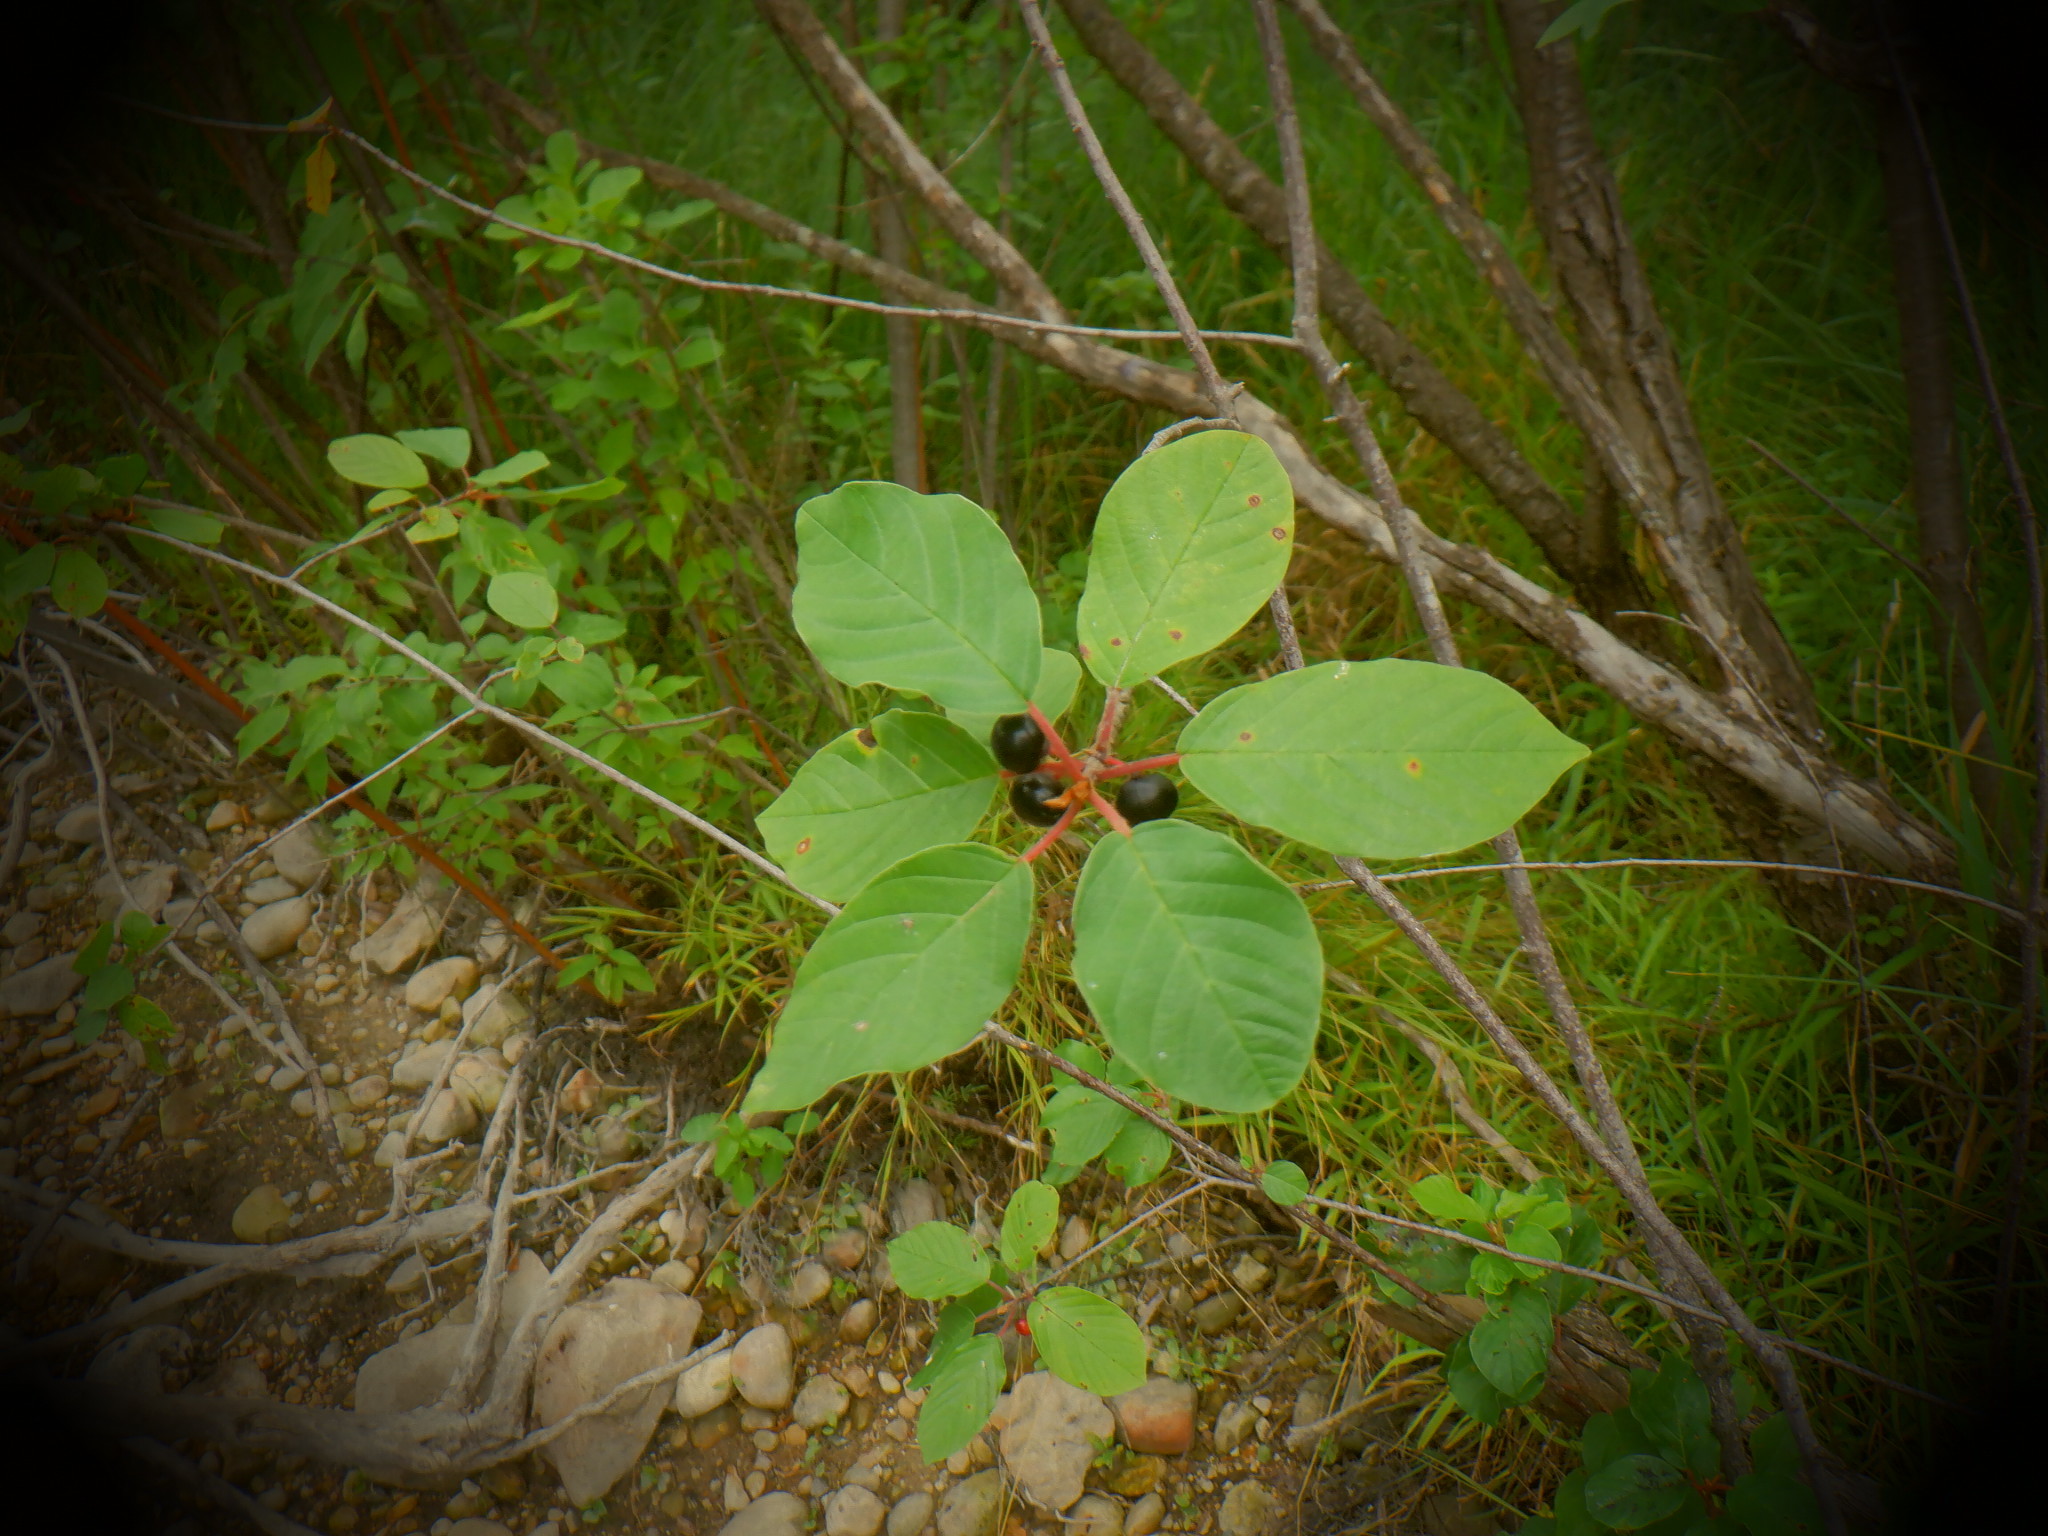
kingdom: Plantae
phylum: Tracheophyta
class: Magnoliopsida
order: Rosales
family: Rhamnaceae
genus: Frangula
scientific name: Frangula alnus
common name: Alder buckthorn
